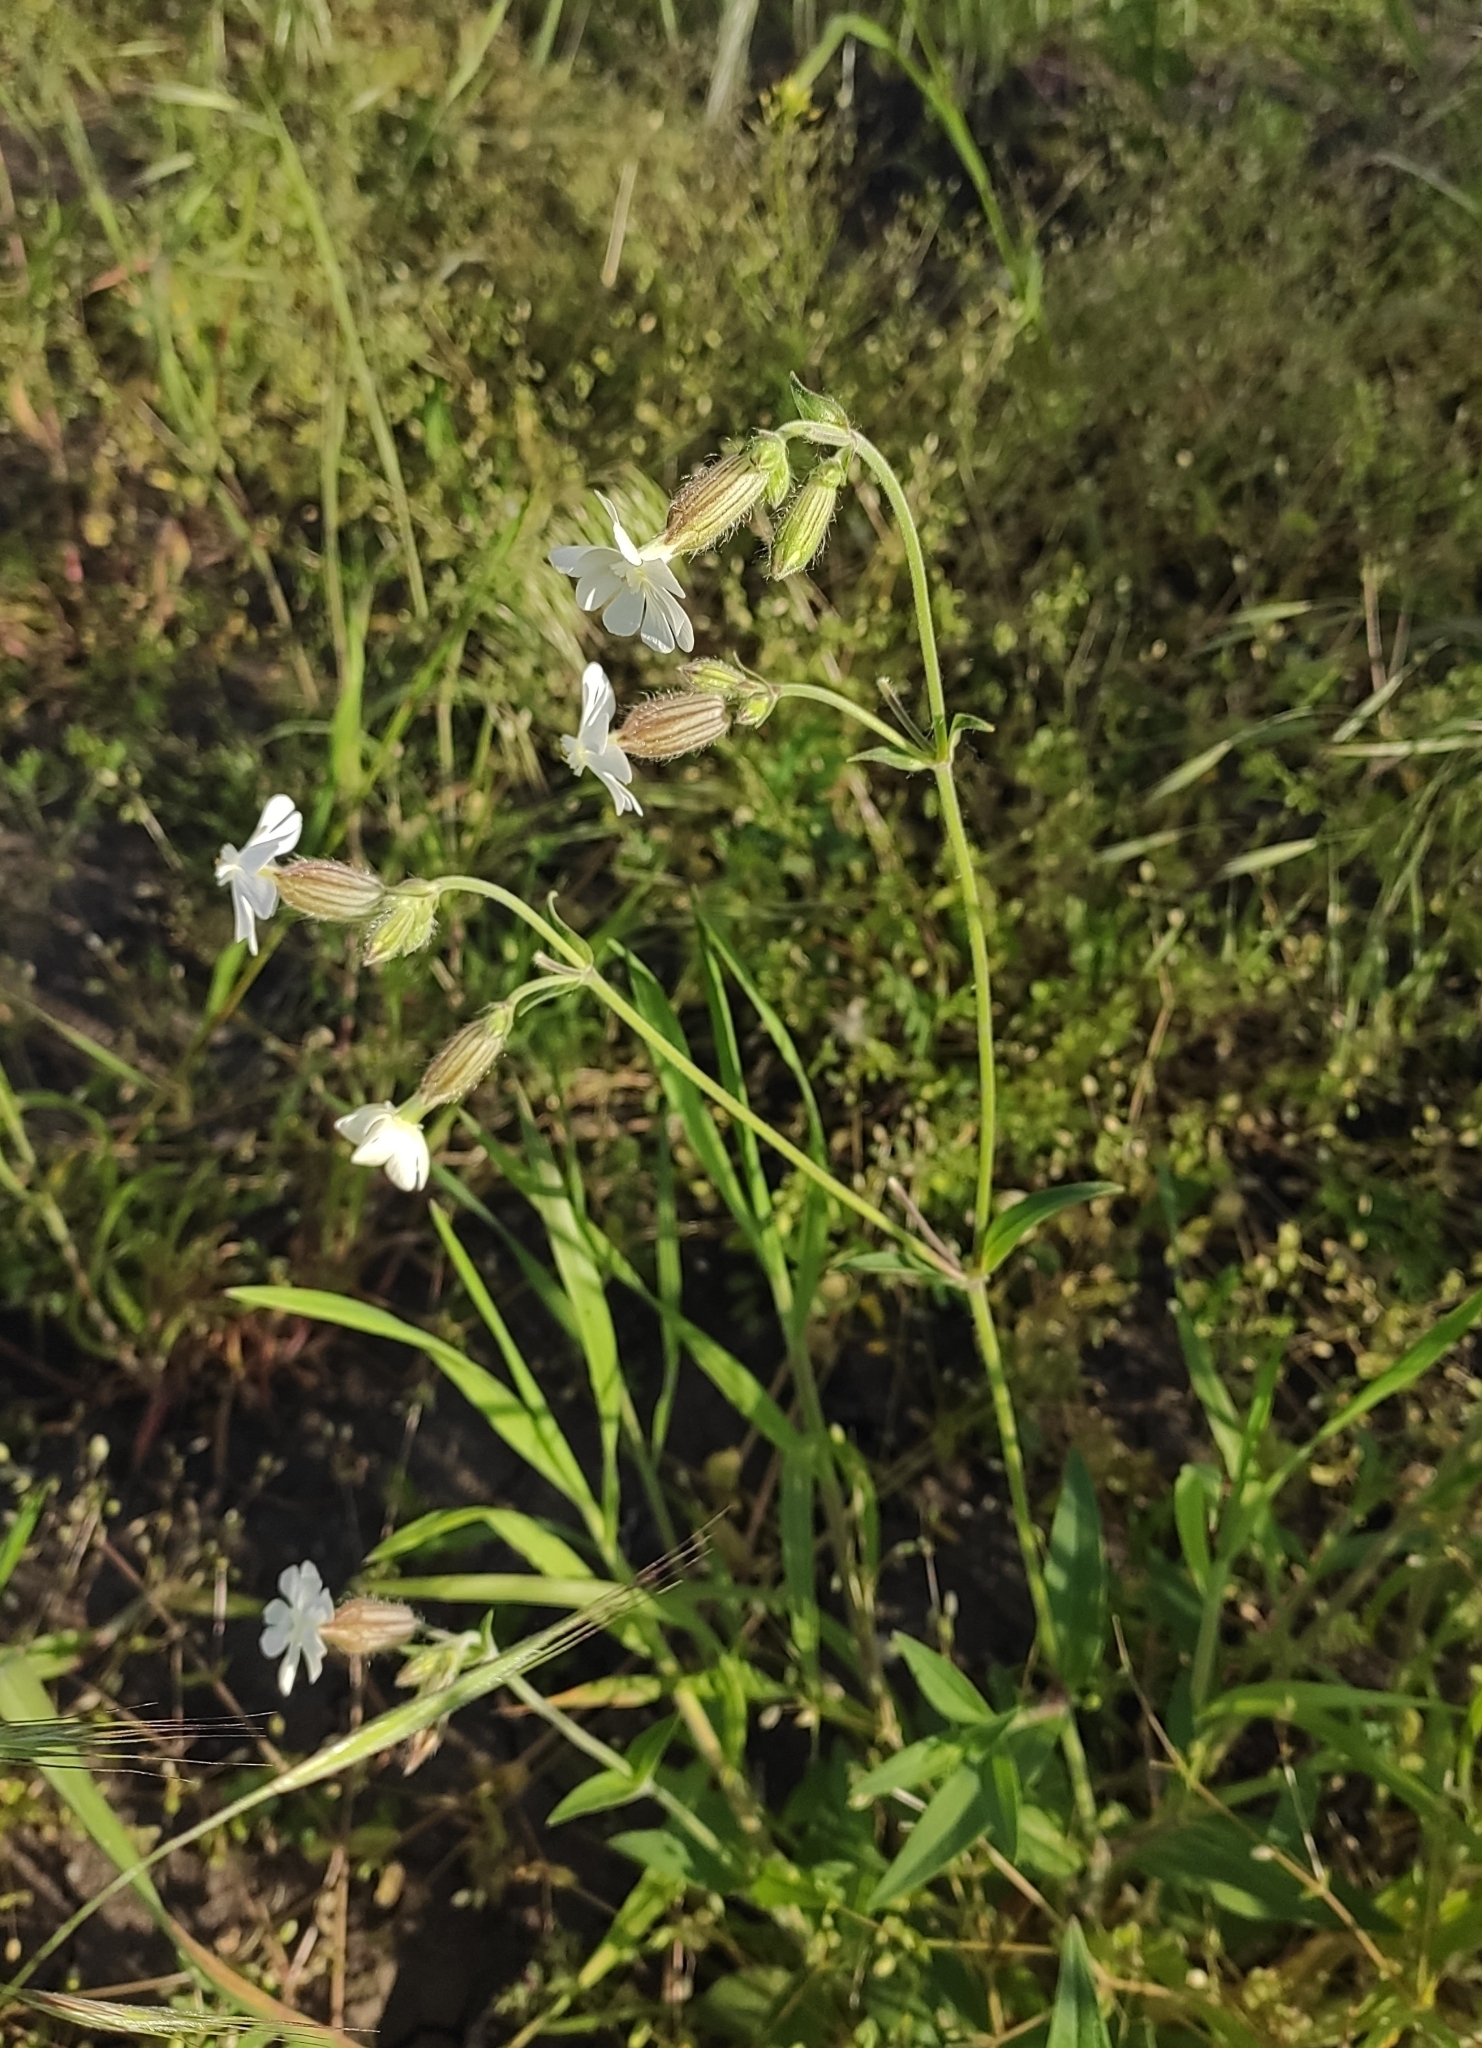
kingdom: Plantae
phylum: Tracheophyta
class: Magnoliopsida
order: Caryophyllales
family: Caryophyllaceae
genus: Silene
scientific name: Silene latifolia
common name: White campion
